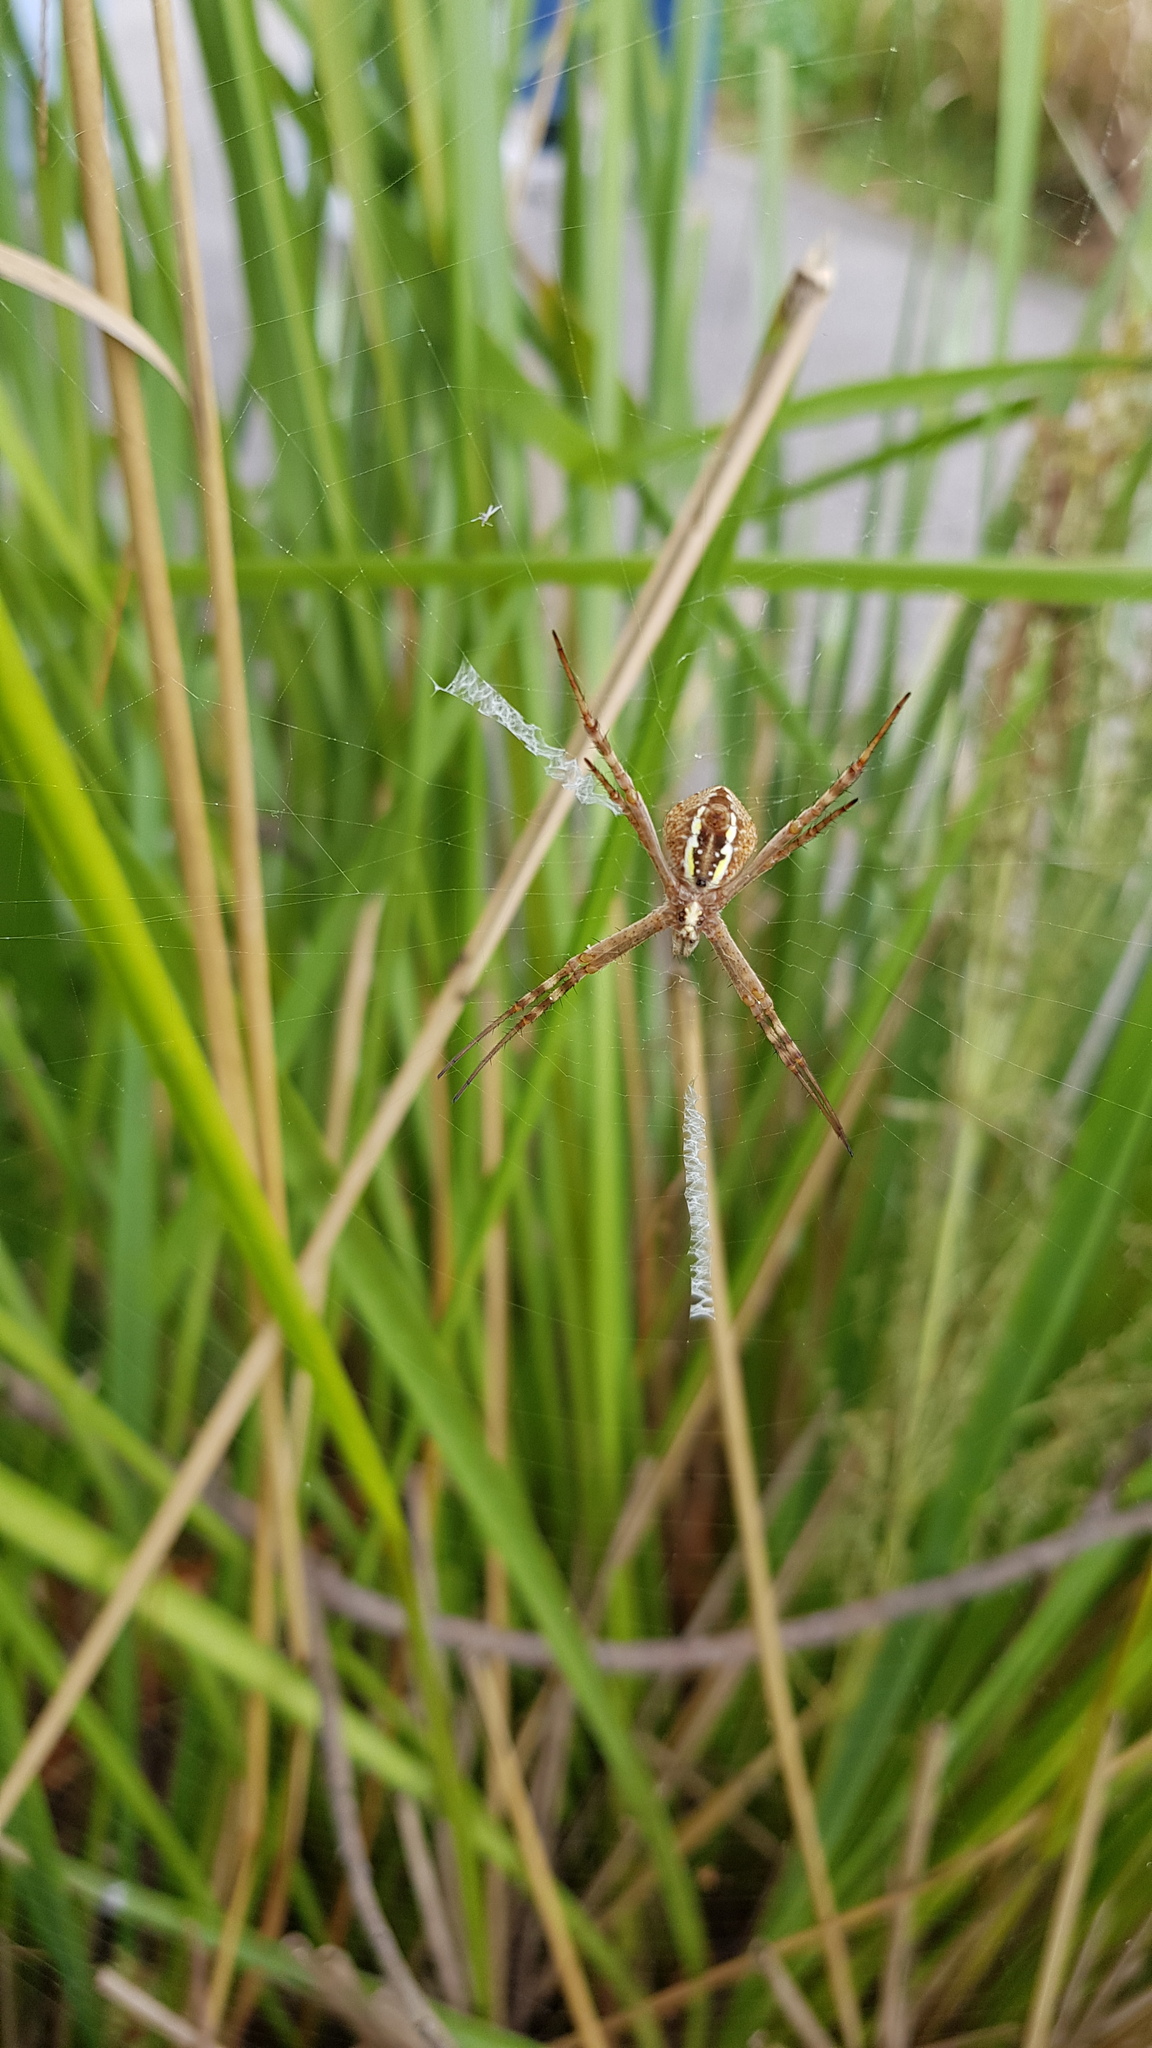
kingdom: Animalia
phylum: Arthropoda
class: Arachnida
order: Araneae
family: Araneidae
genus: Argiope
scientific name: Argiope keyserlingi
